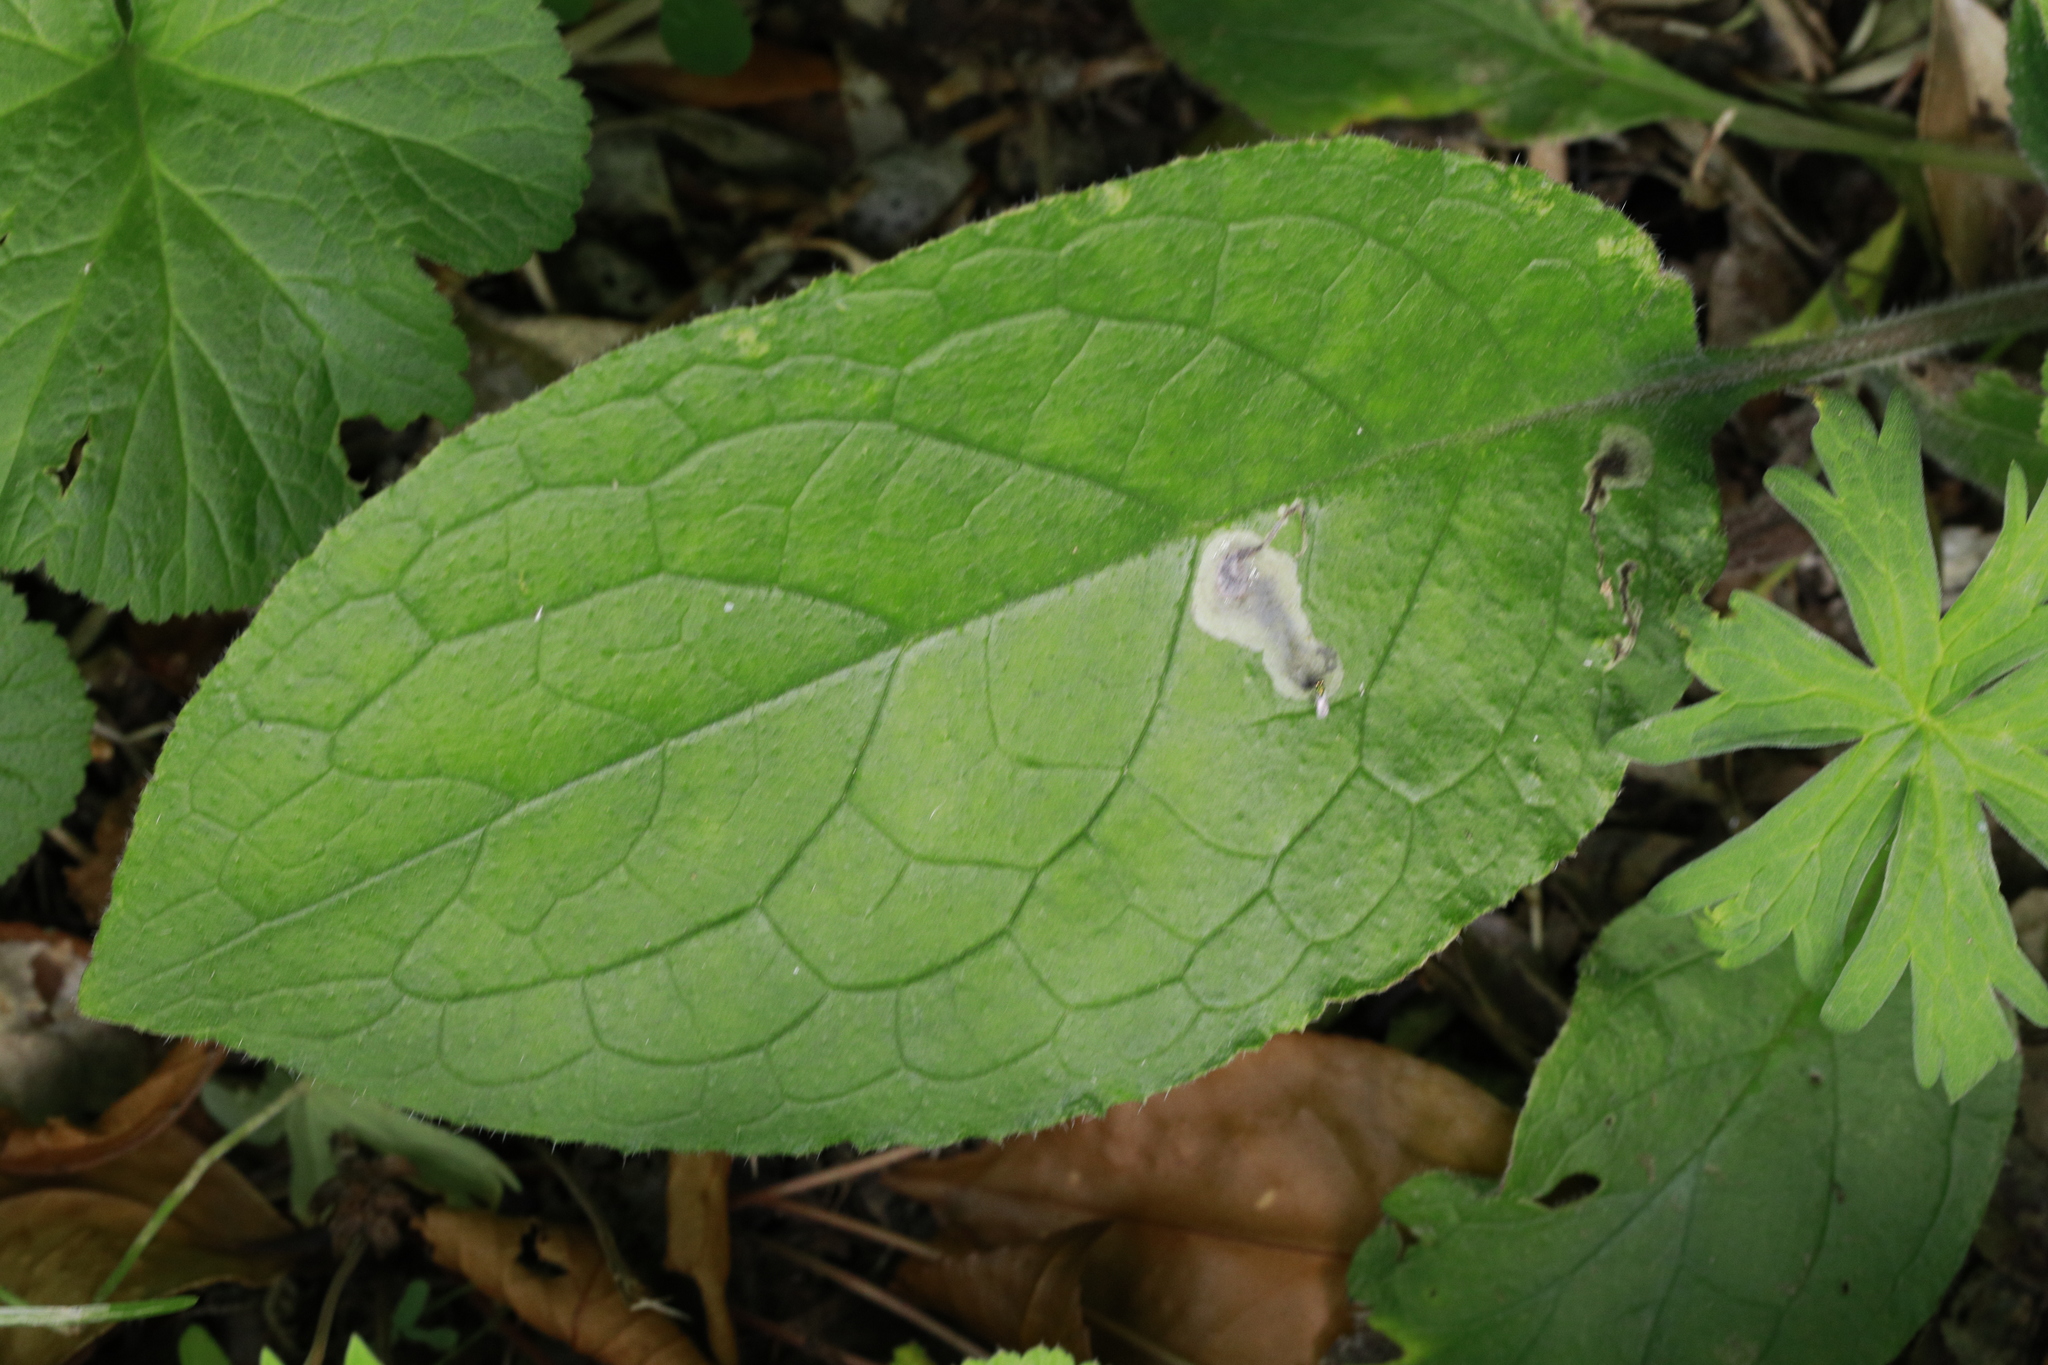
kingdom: Plantae
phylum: Tracheophyta
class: Magnoliopsida
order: Boraginales
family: Boraginaceae
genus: Pentaglottis
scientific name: Pentaglottis sempervirens
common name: Green alkanet
